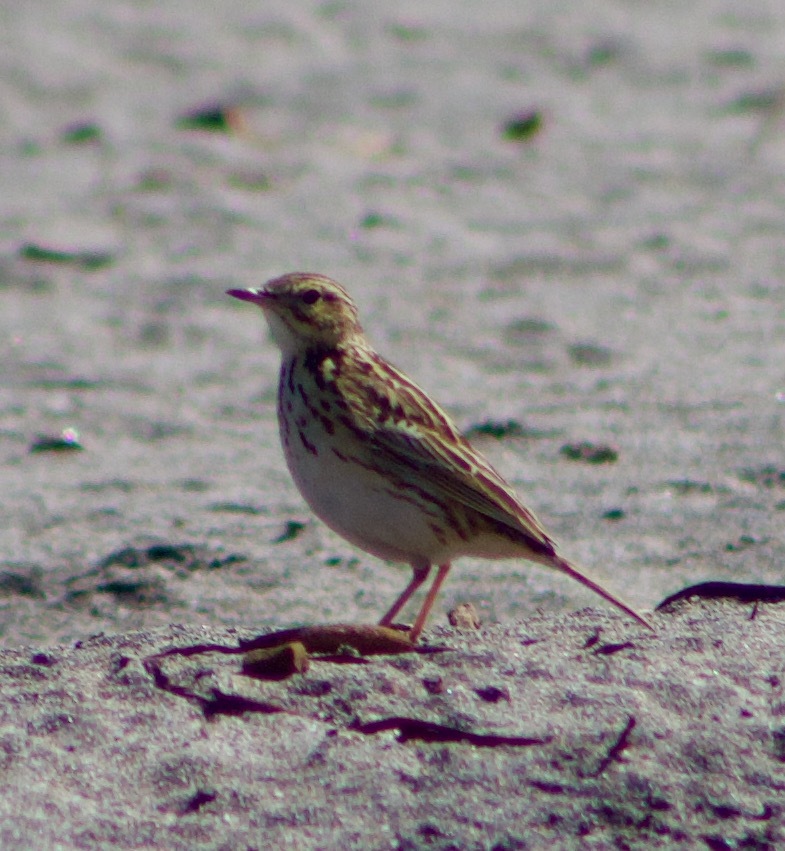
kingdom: Animalia
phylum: Chordata
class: Aves
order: Passeriformes
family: Motacillidae
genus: Anthus
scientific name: Anthus correndera
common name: Correndera pipit
